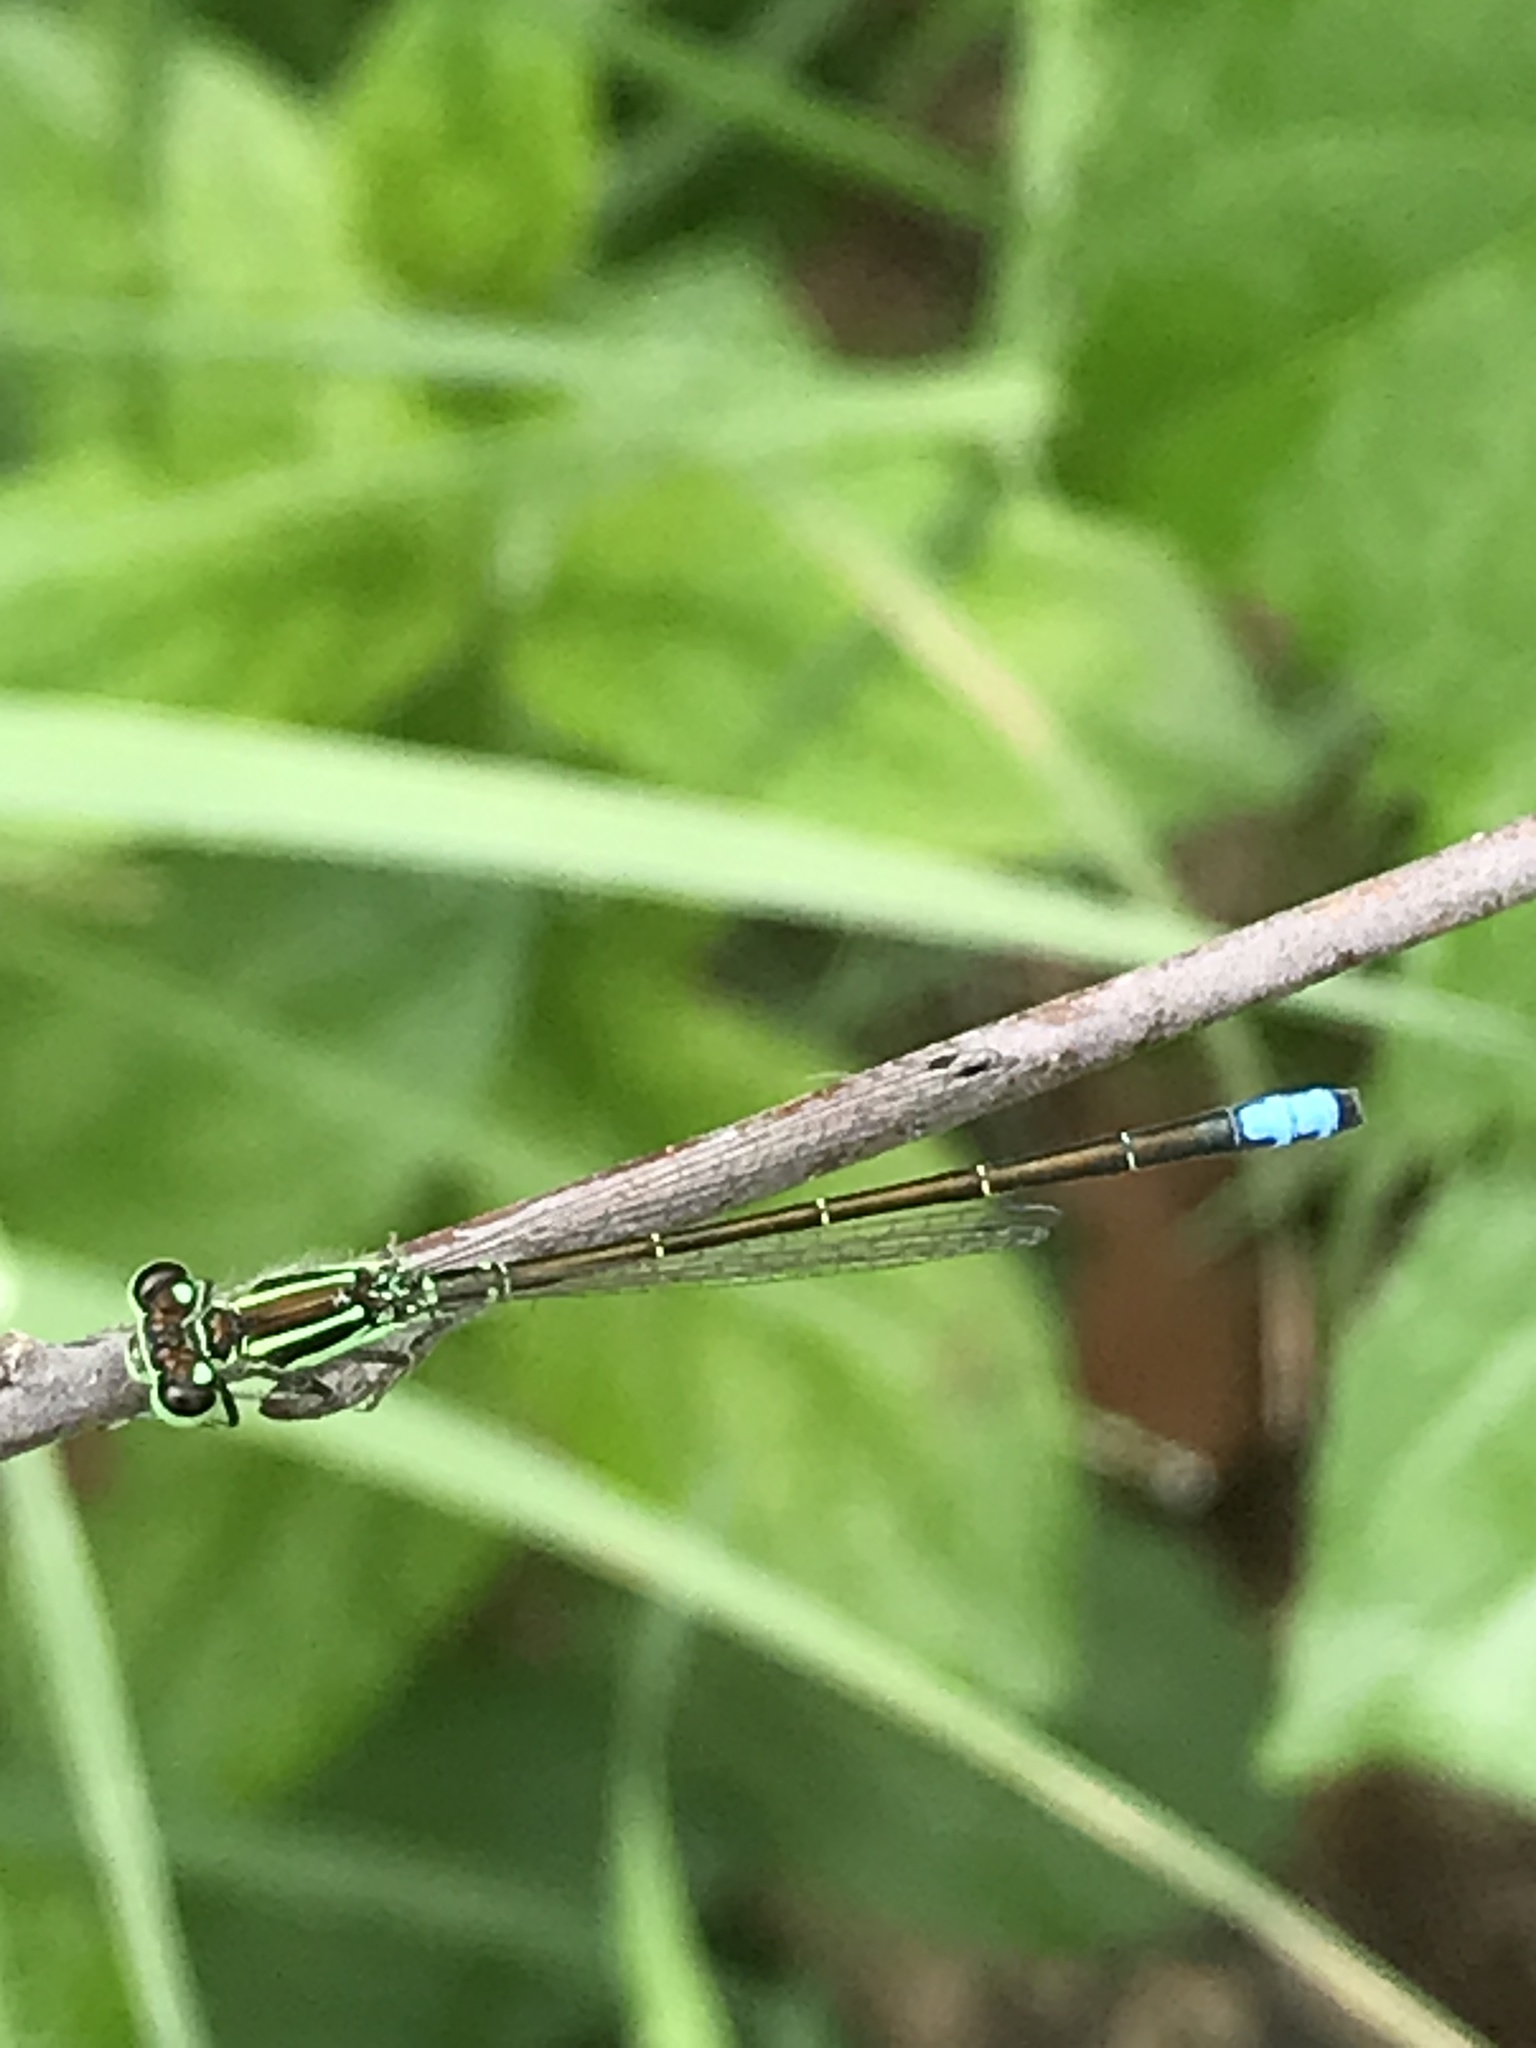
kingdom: Animalia
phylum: Arthropoda
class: Insecta
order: Odonata
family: Coenagrionidae
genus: Ischnura
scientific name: Ischnura verticalis
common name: Eastern forktail
